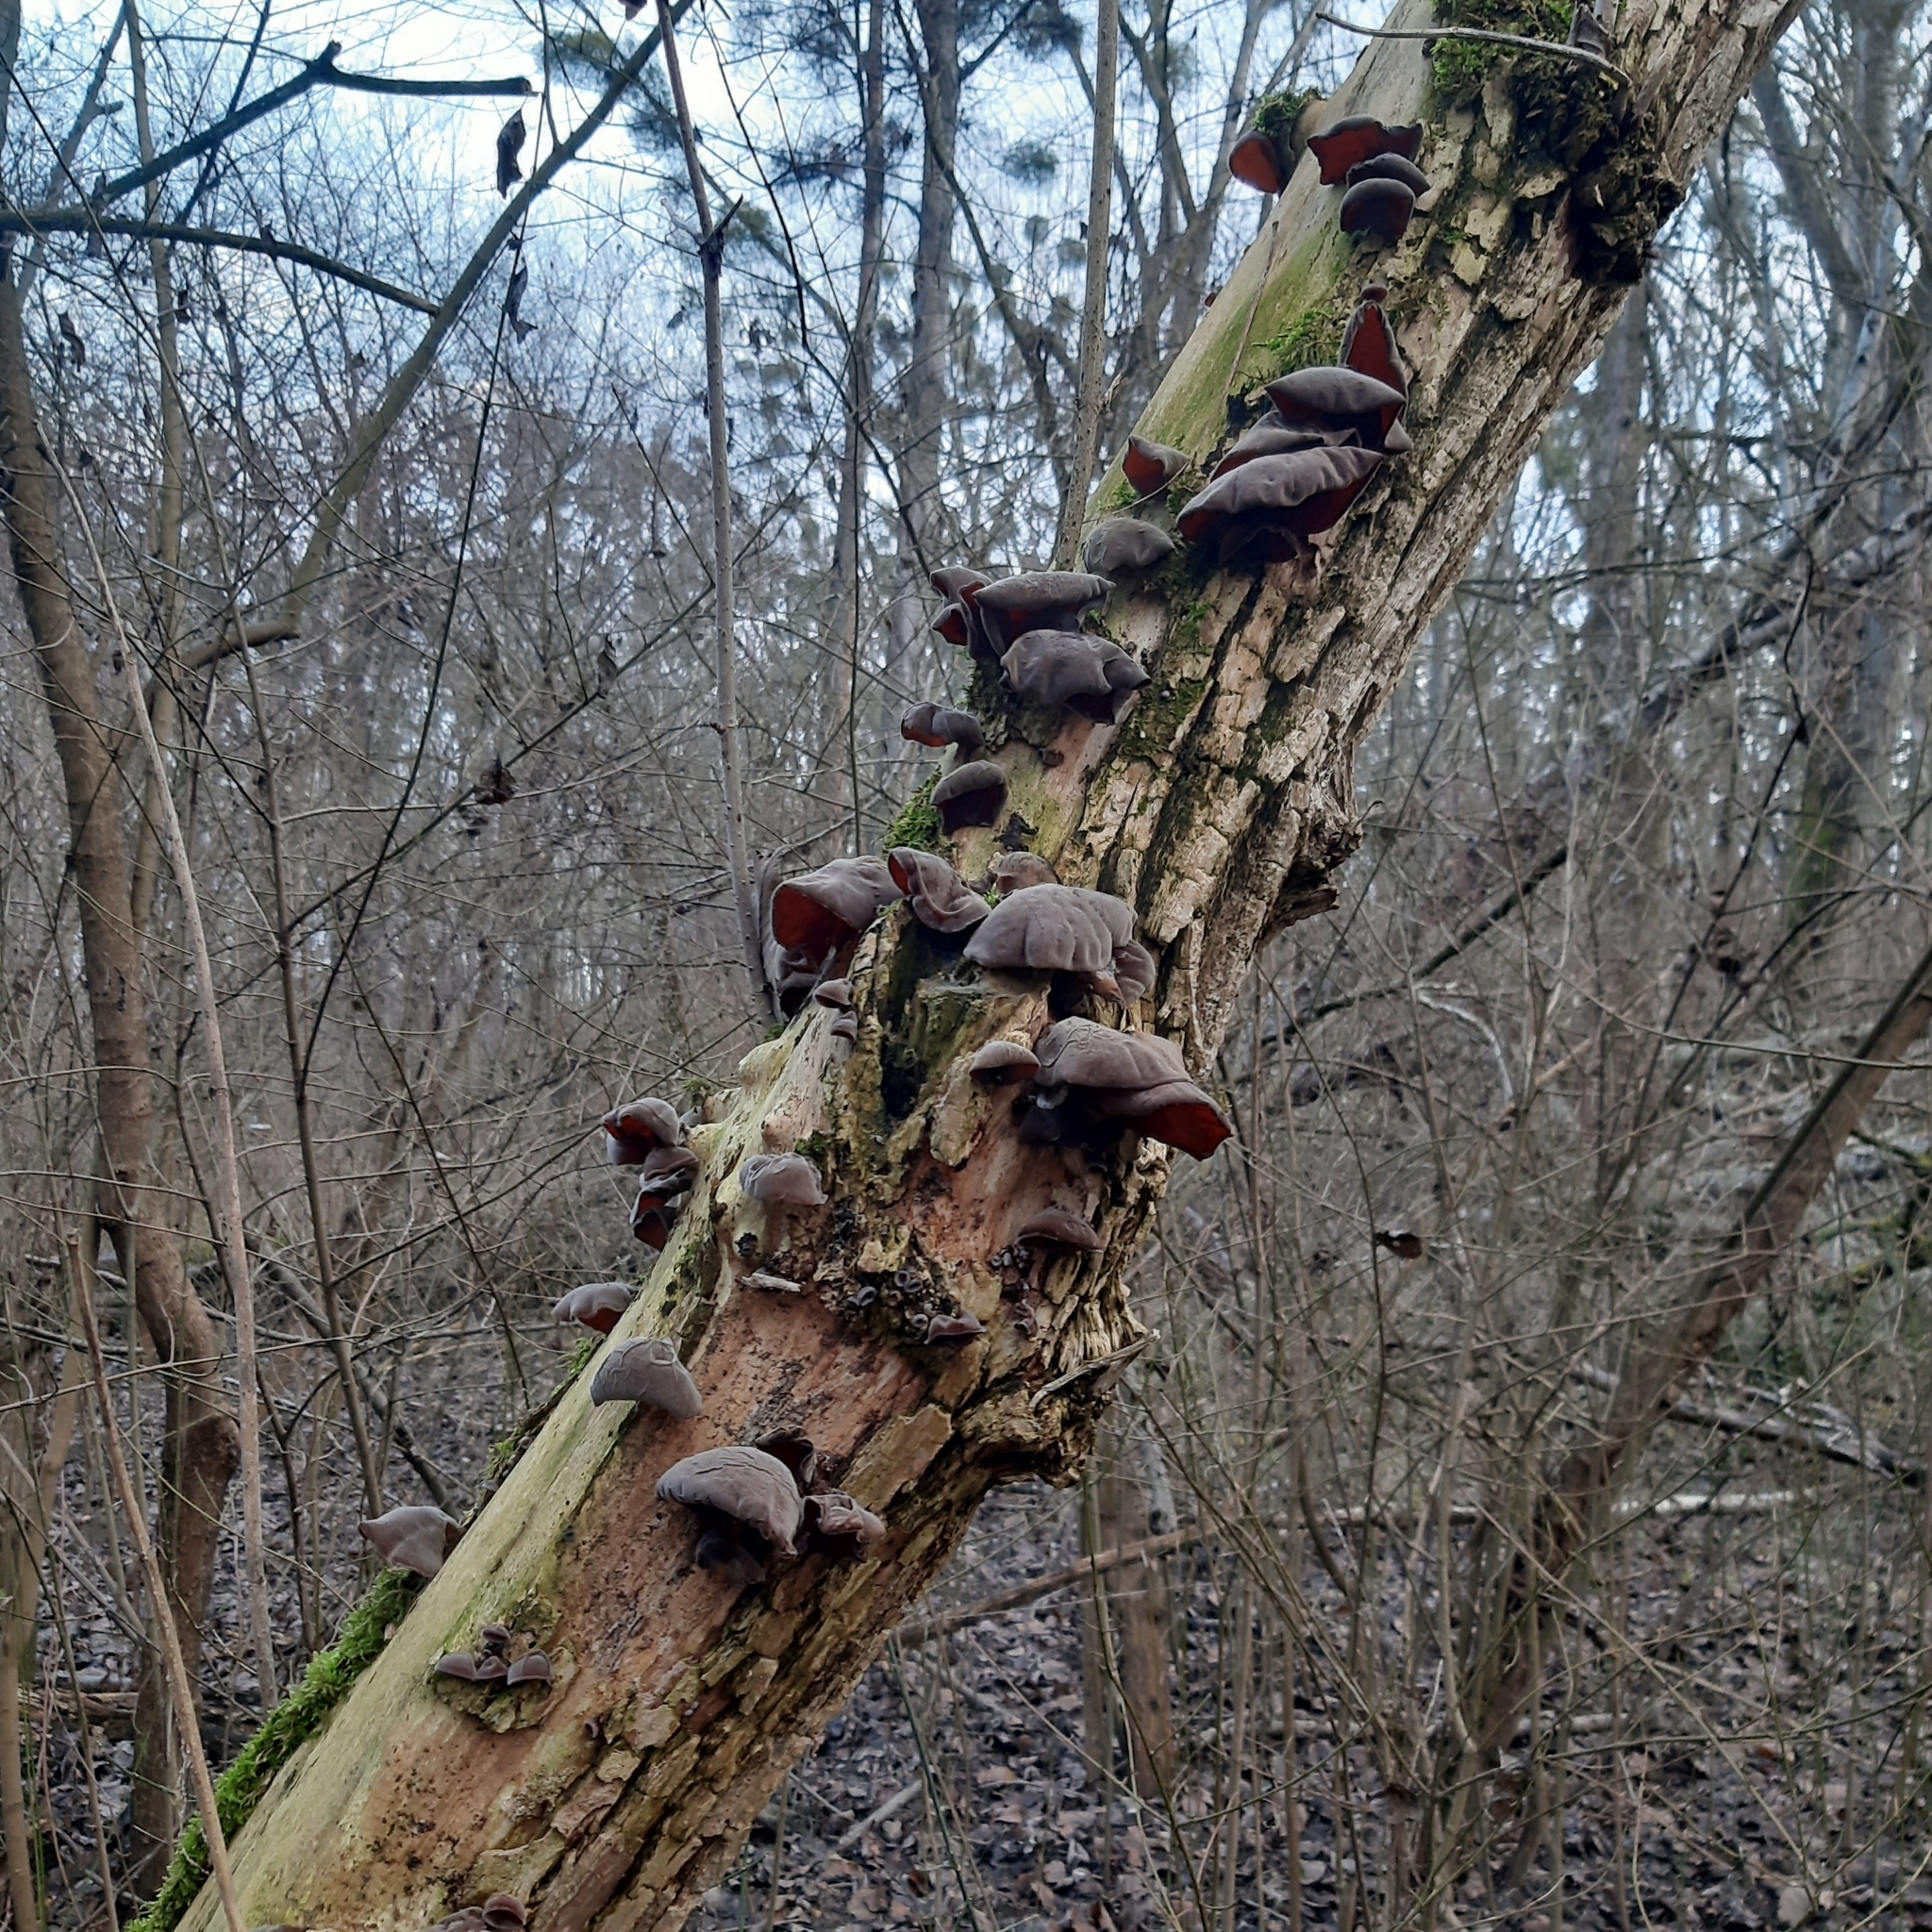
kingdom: Fungi
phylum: Basidiomycota
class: Agaricomycetes
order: Auriculariales
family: Auriculariaceae
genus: Auricularia
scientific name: Auricularia auricula-judae
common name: Jelly ear
